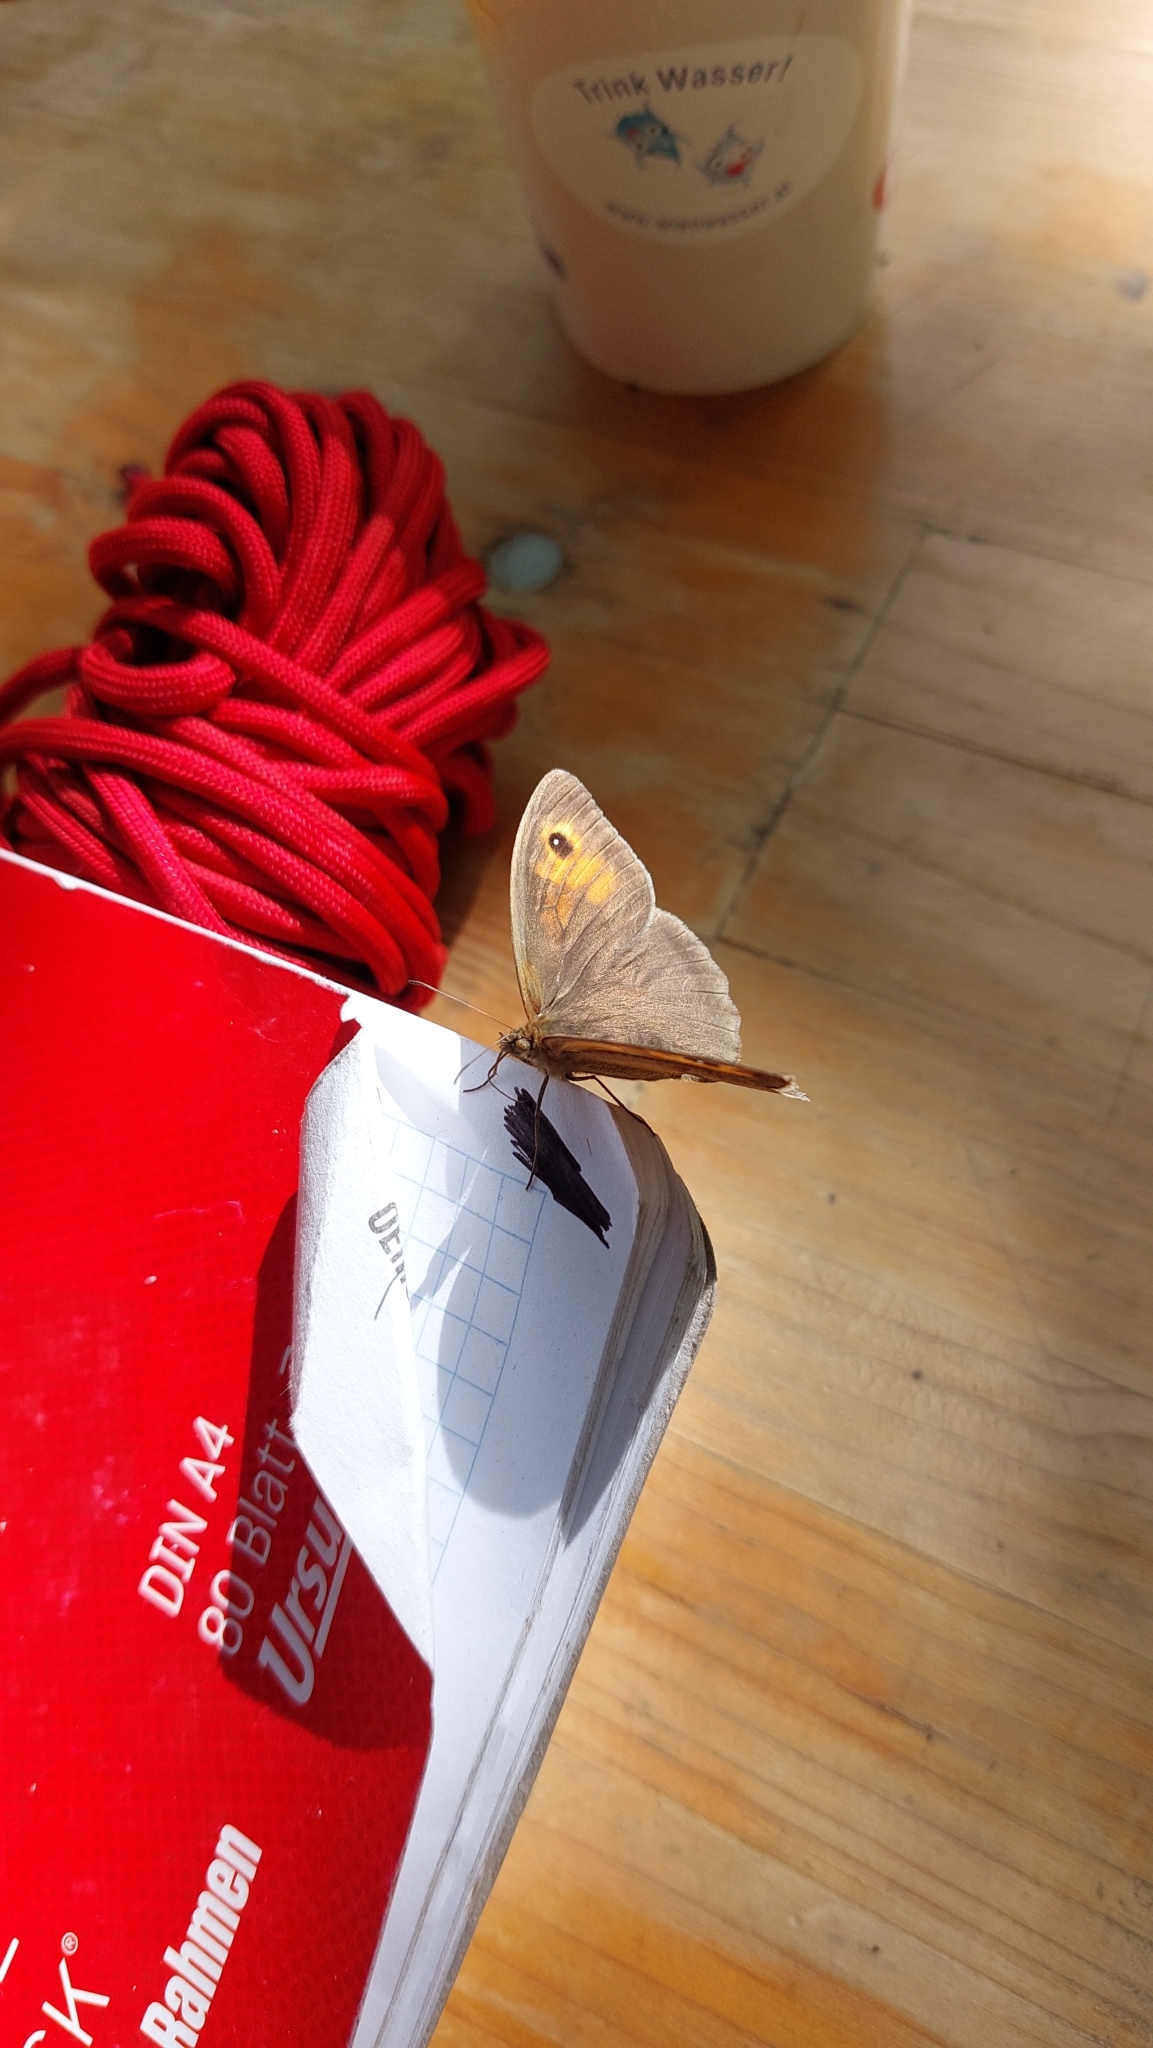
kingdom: Animalia
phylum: Arthropoda
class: Insecta
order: Lepidoptera
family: Nymphalidae
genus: Maniola
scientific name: Maniola jurtina
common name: Meadow brown
